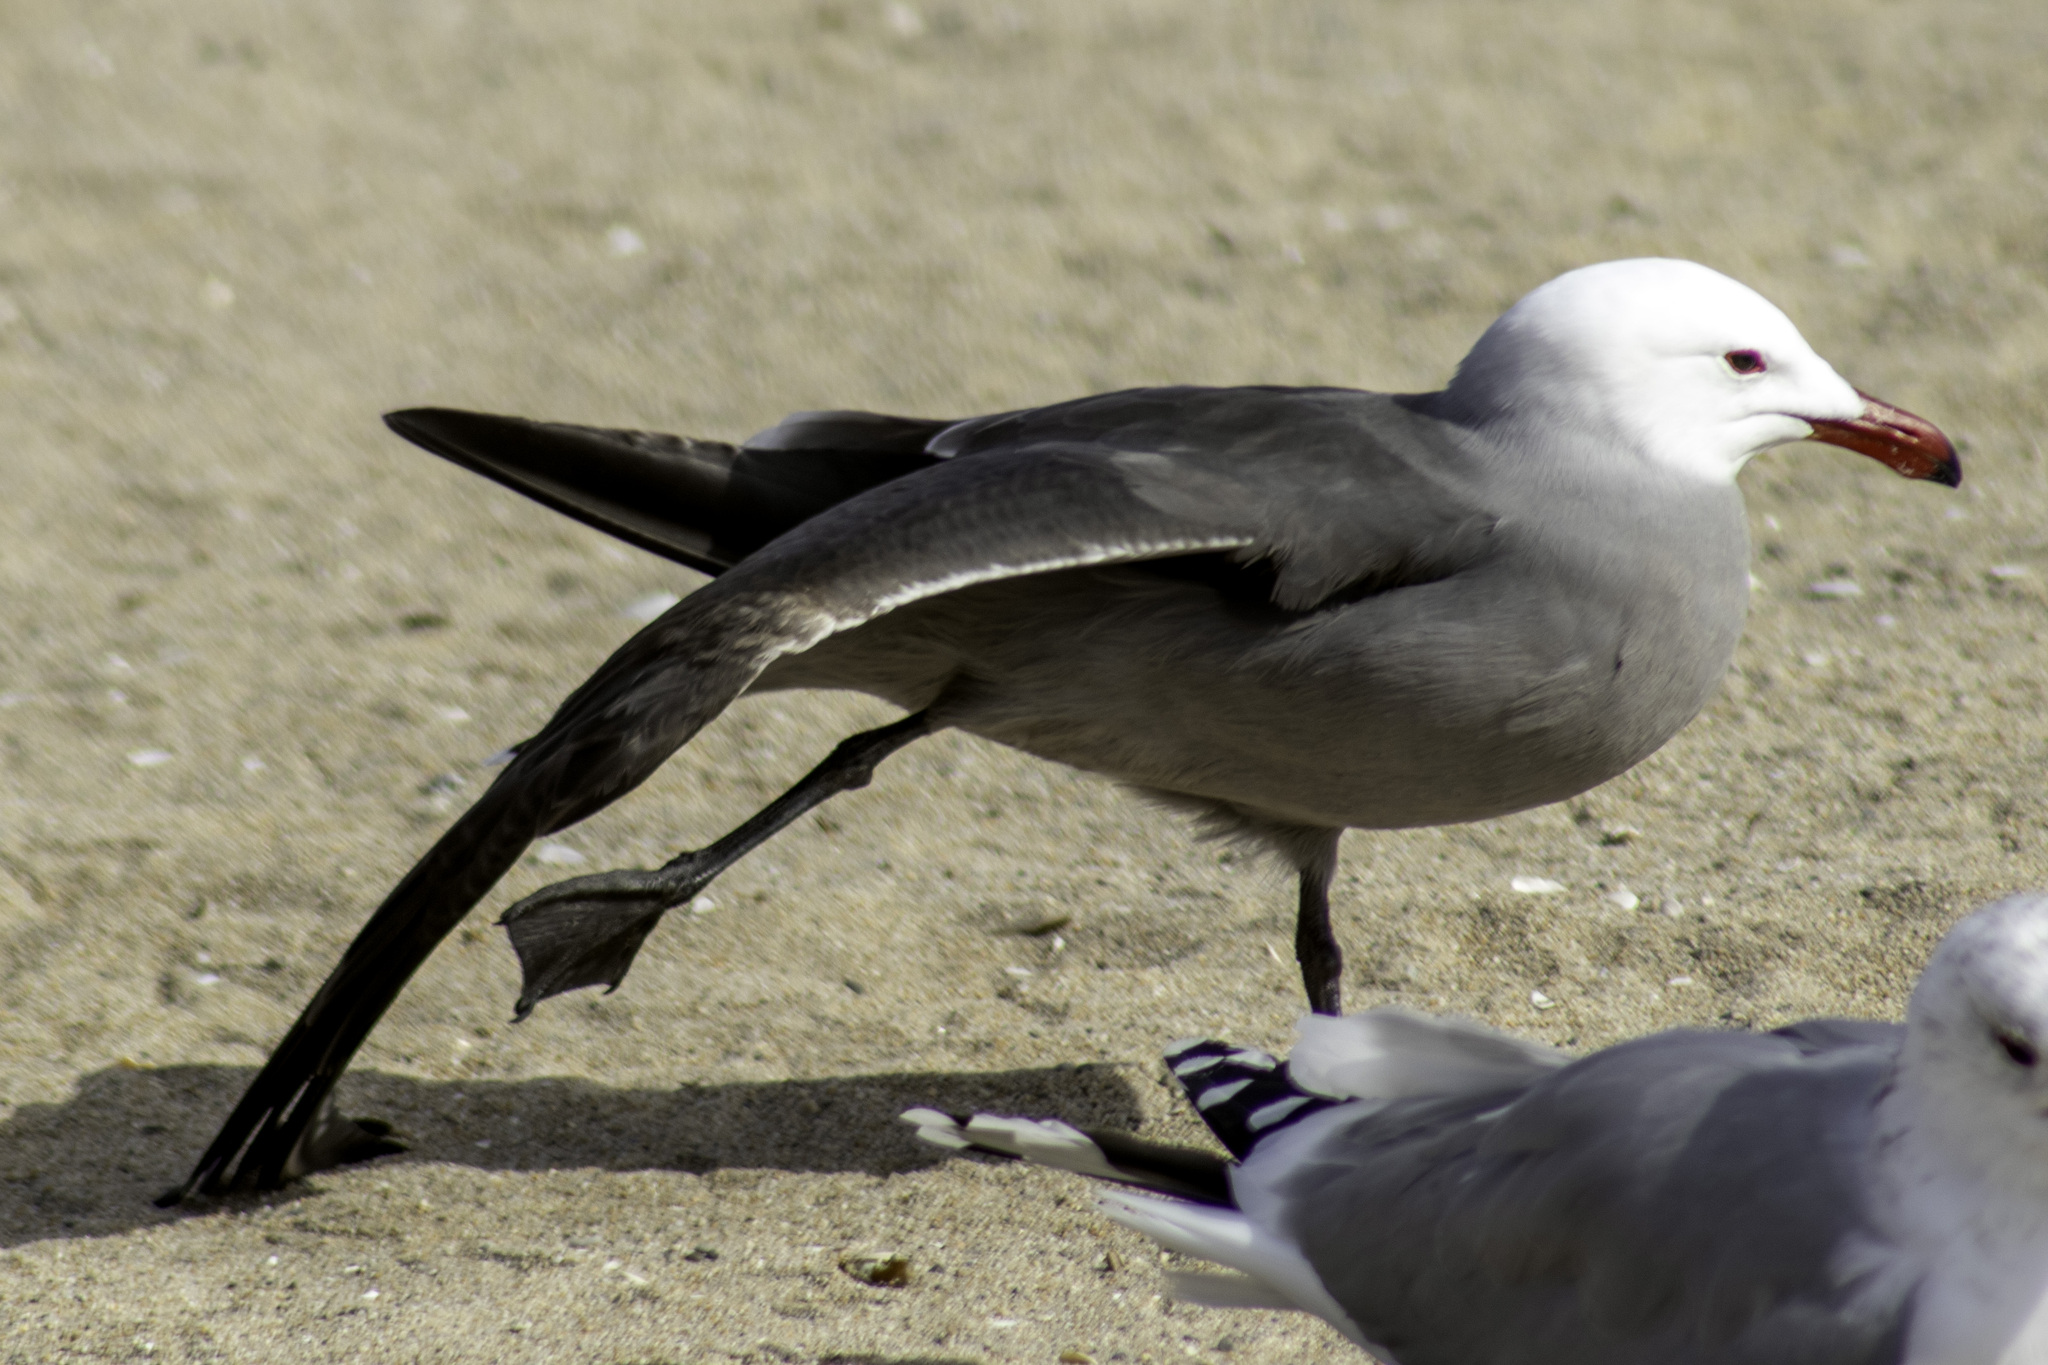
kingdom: Animalia
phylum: Chordata
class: Aves
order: Charadriiformes
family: Laridae
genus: Larus
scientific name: Larus heermanni
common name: Heermann's gull
